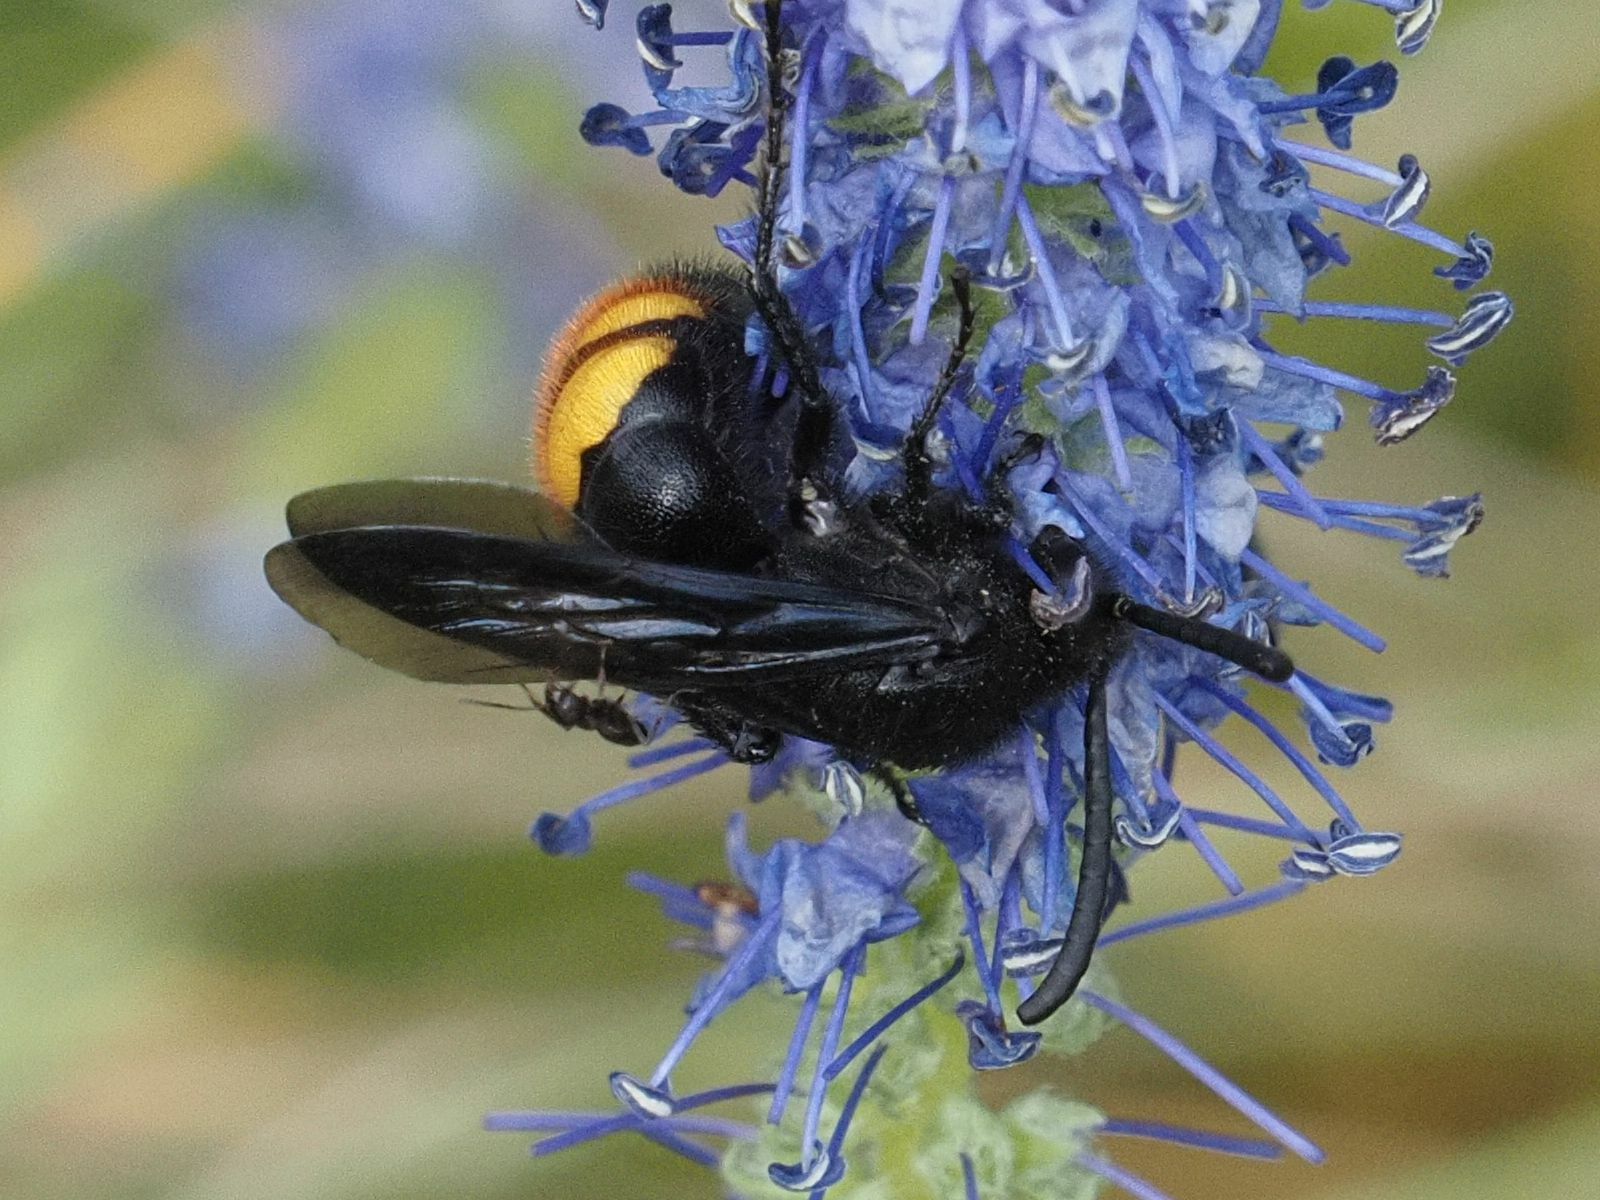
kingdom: Animalia
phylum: Arthropoda
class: Insecta
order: Hymenoptera
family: Scoliidae
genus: Scolia
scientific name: Scolia hirta
